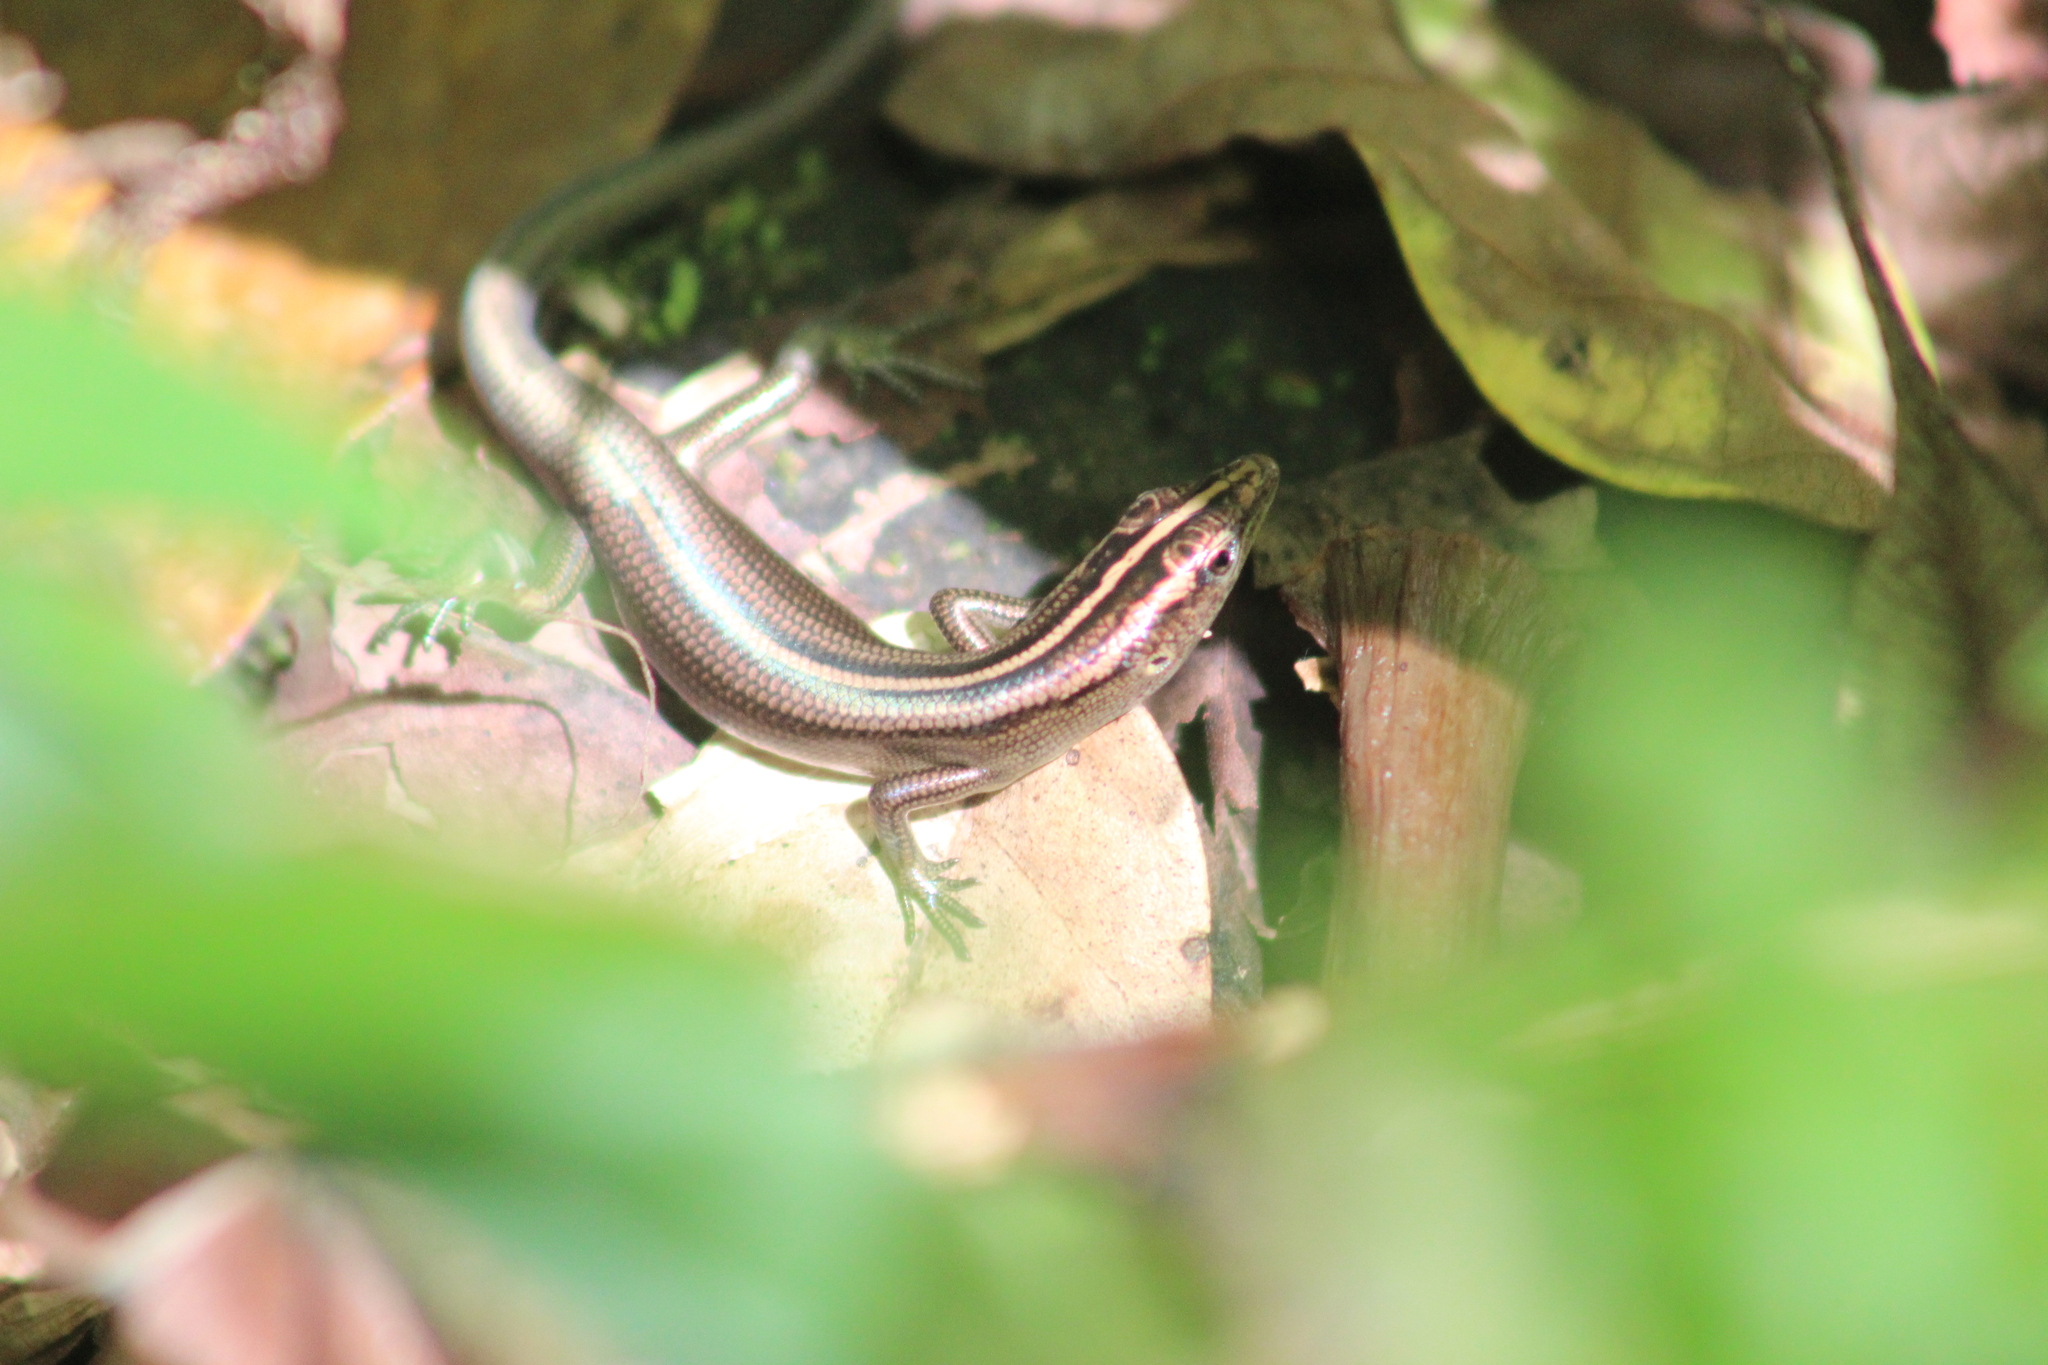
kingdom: Animalia
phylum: Chordata
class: Squamata
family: Scincidae
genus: Emoia
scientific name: Emoia cyanura
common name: Copper-tailed skink
